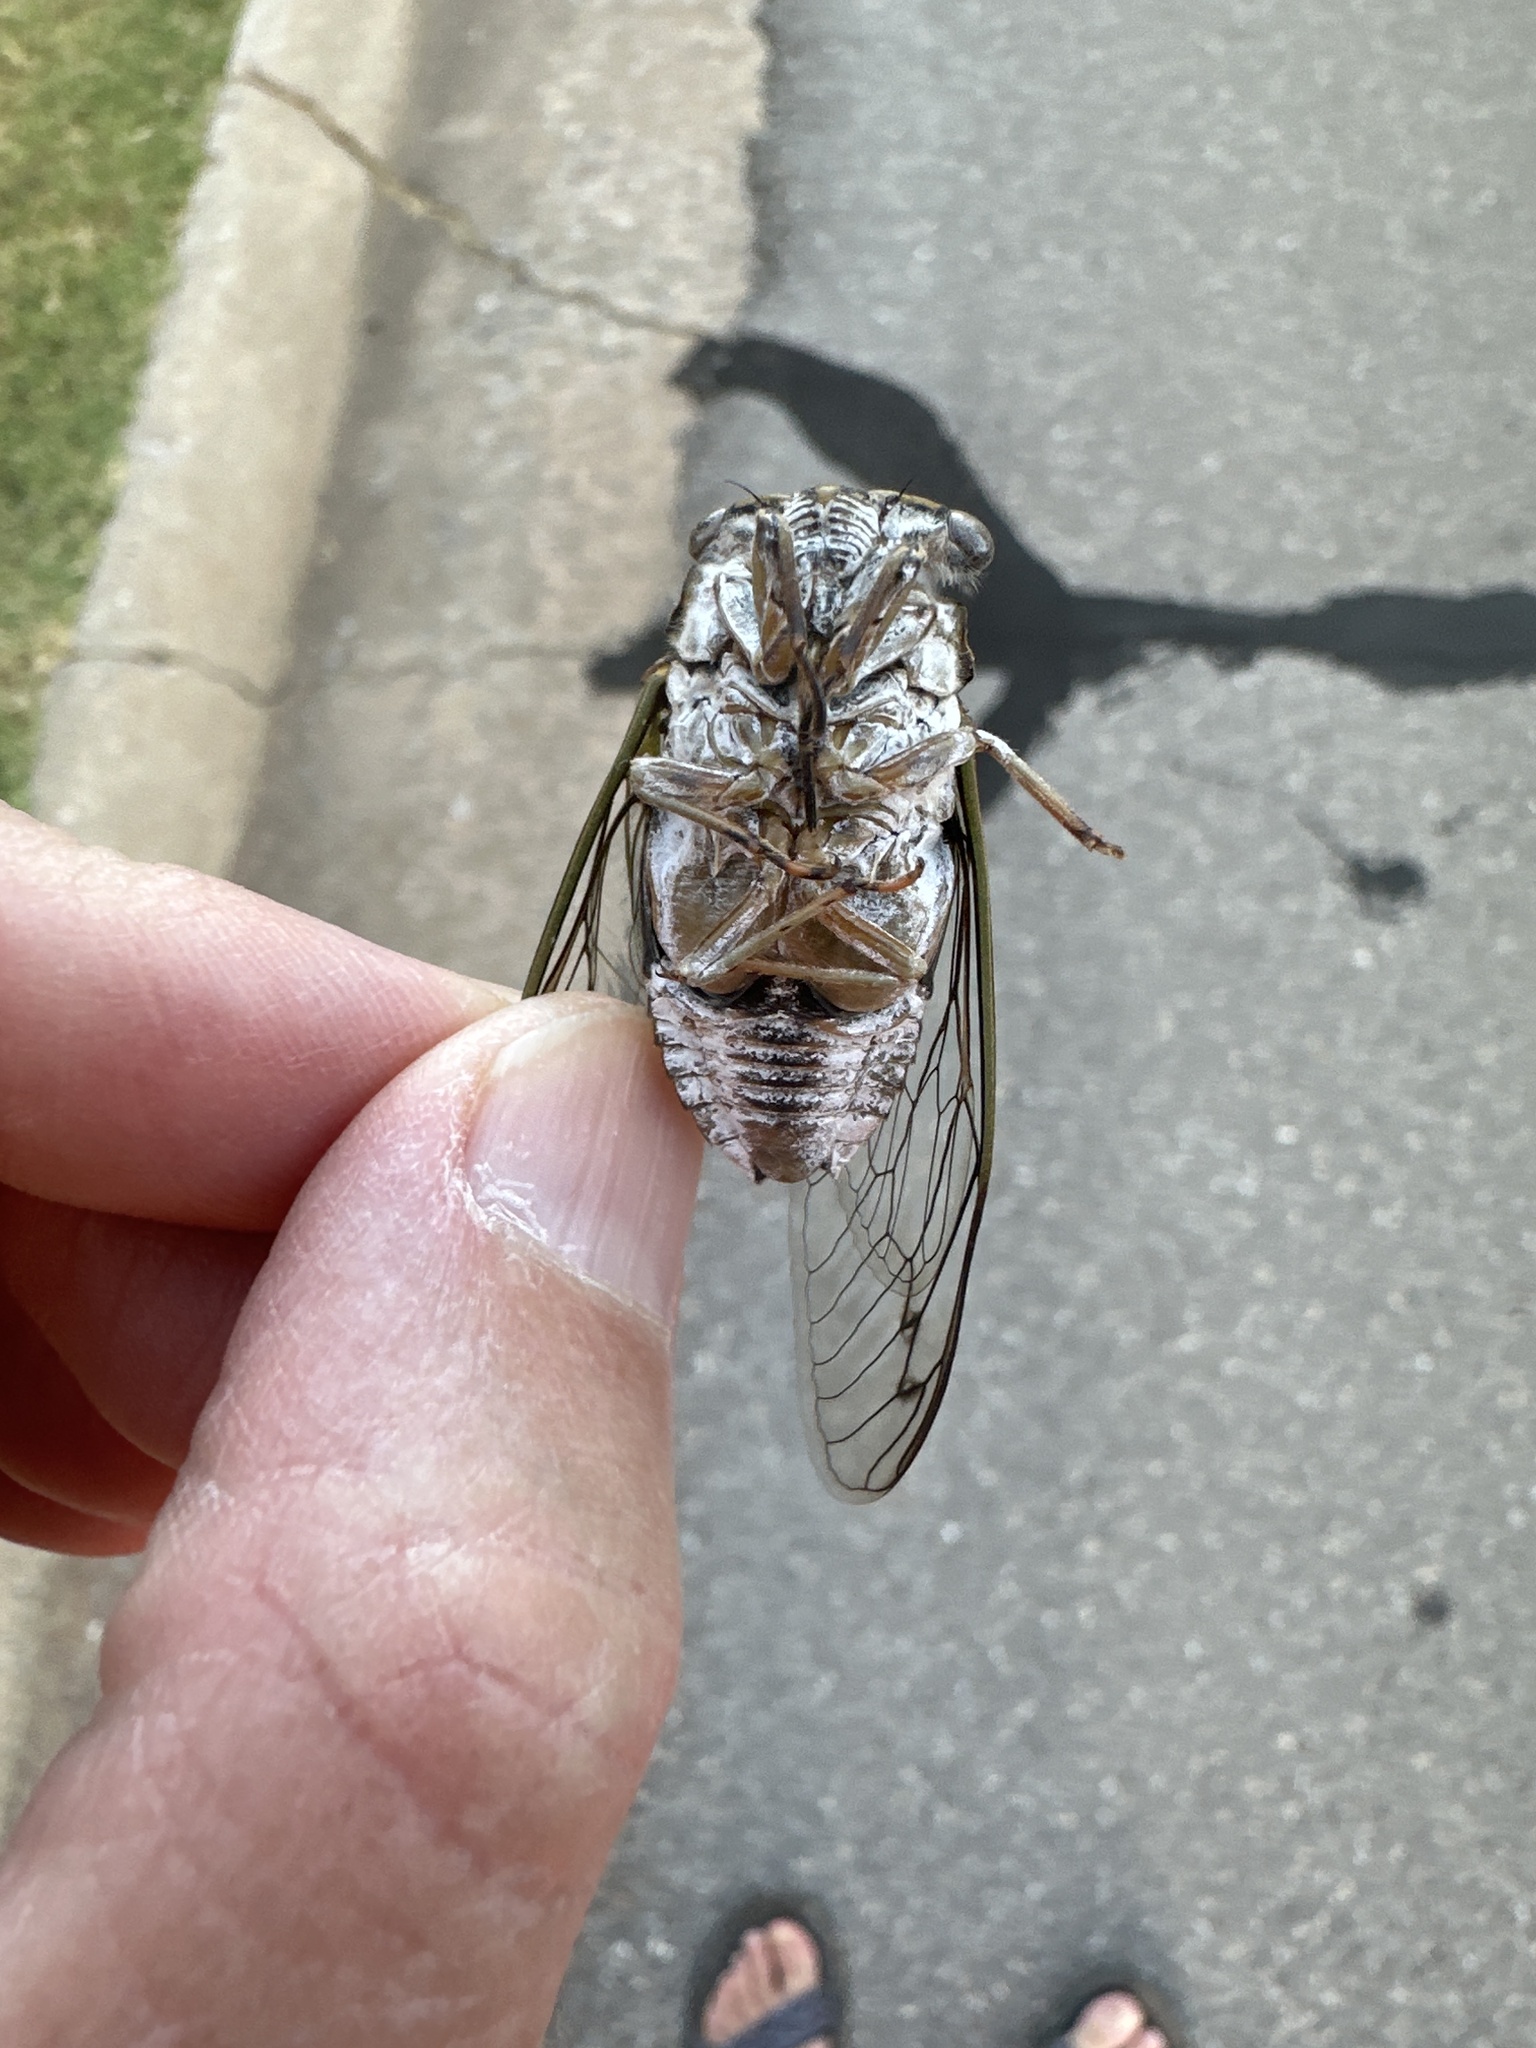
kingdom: Animalia
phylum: Arthropoda
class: Insecta
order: Hemiptera
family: Cicadidae
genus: Neotibicen
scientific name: Neotibicen pruinosus
